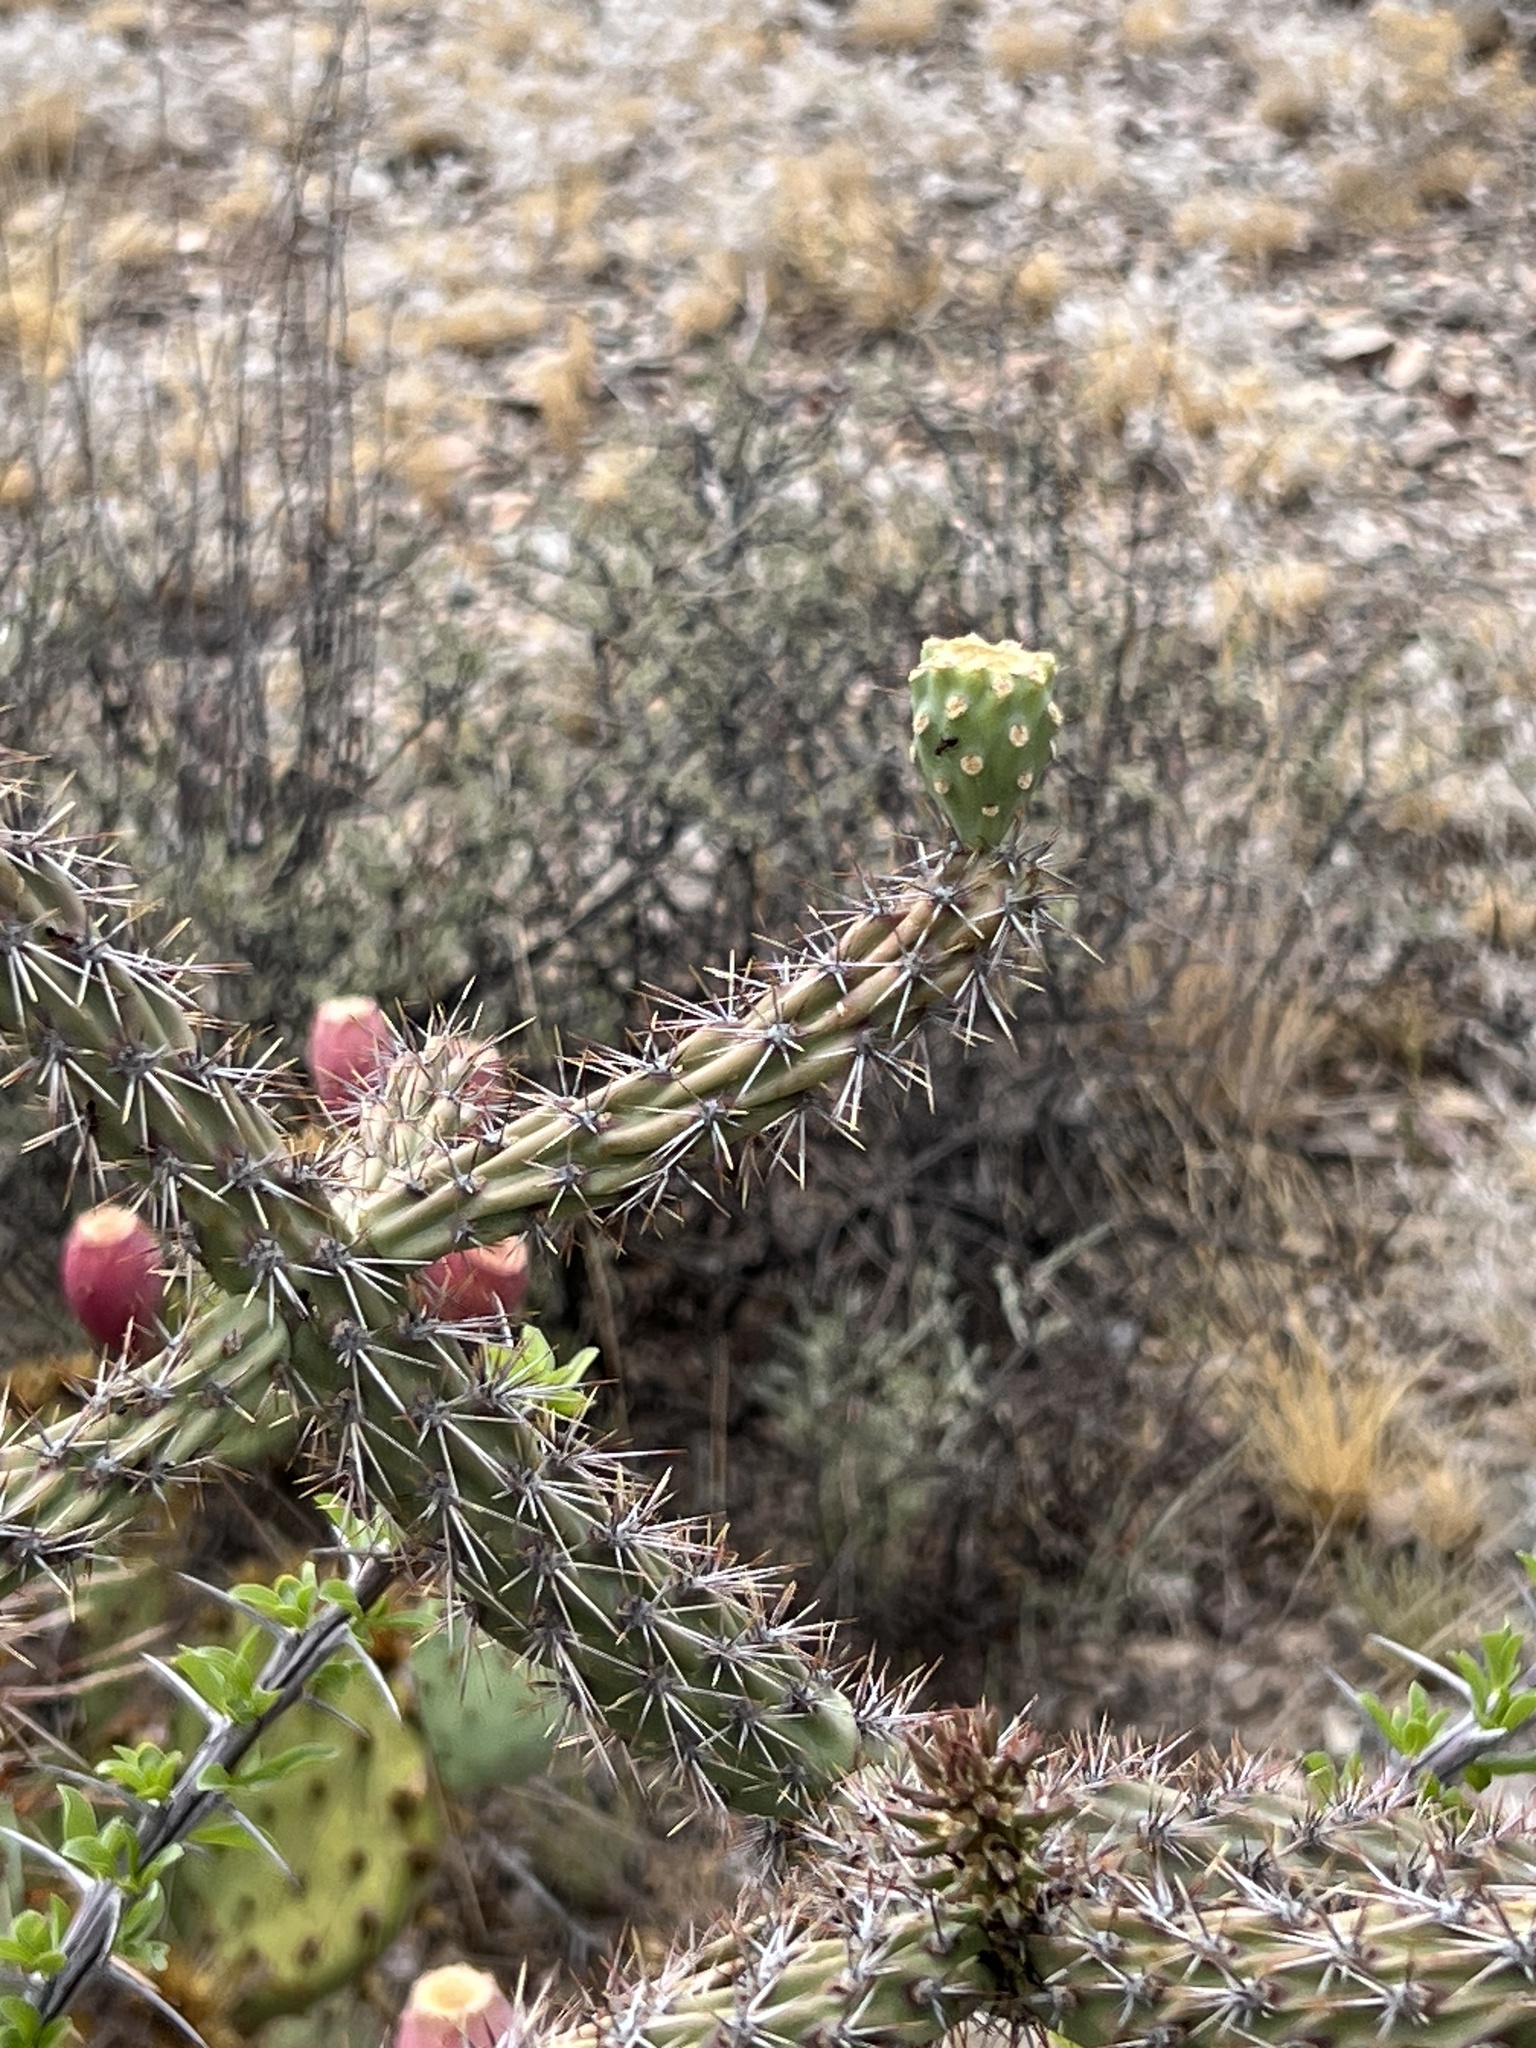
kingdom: Plantae
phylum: Tracheophyta
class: Magnoliopsida
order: Caryophyllales
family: Cactaceae
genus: Cylindropuntia
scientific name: Cylindropuntia thurberi
